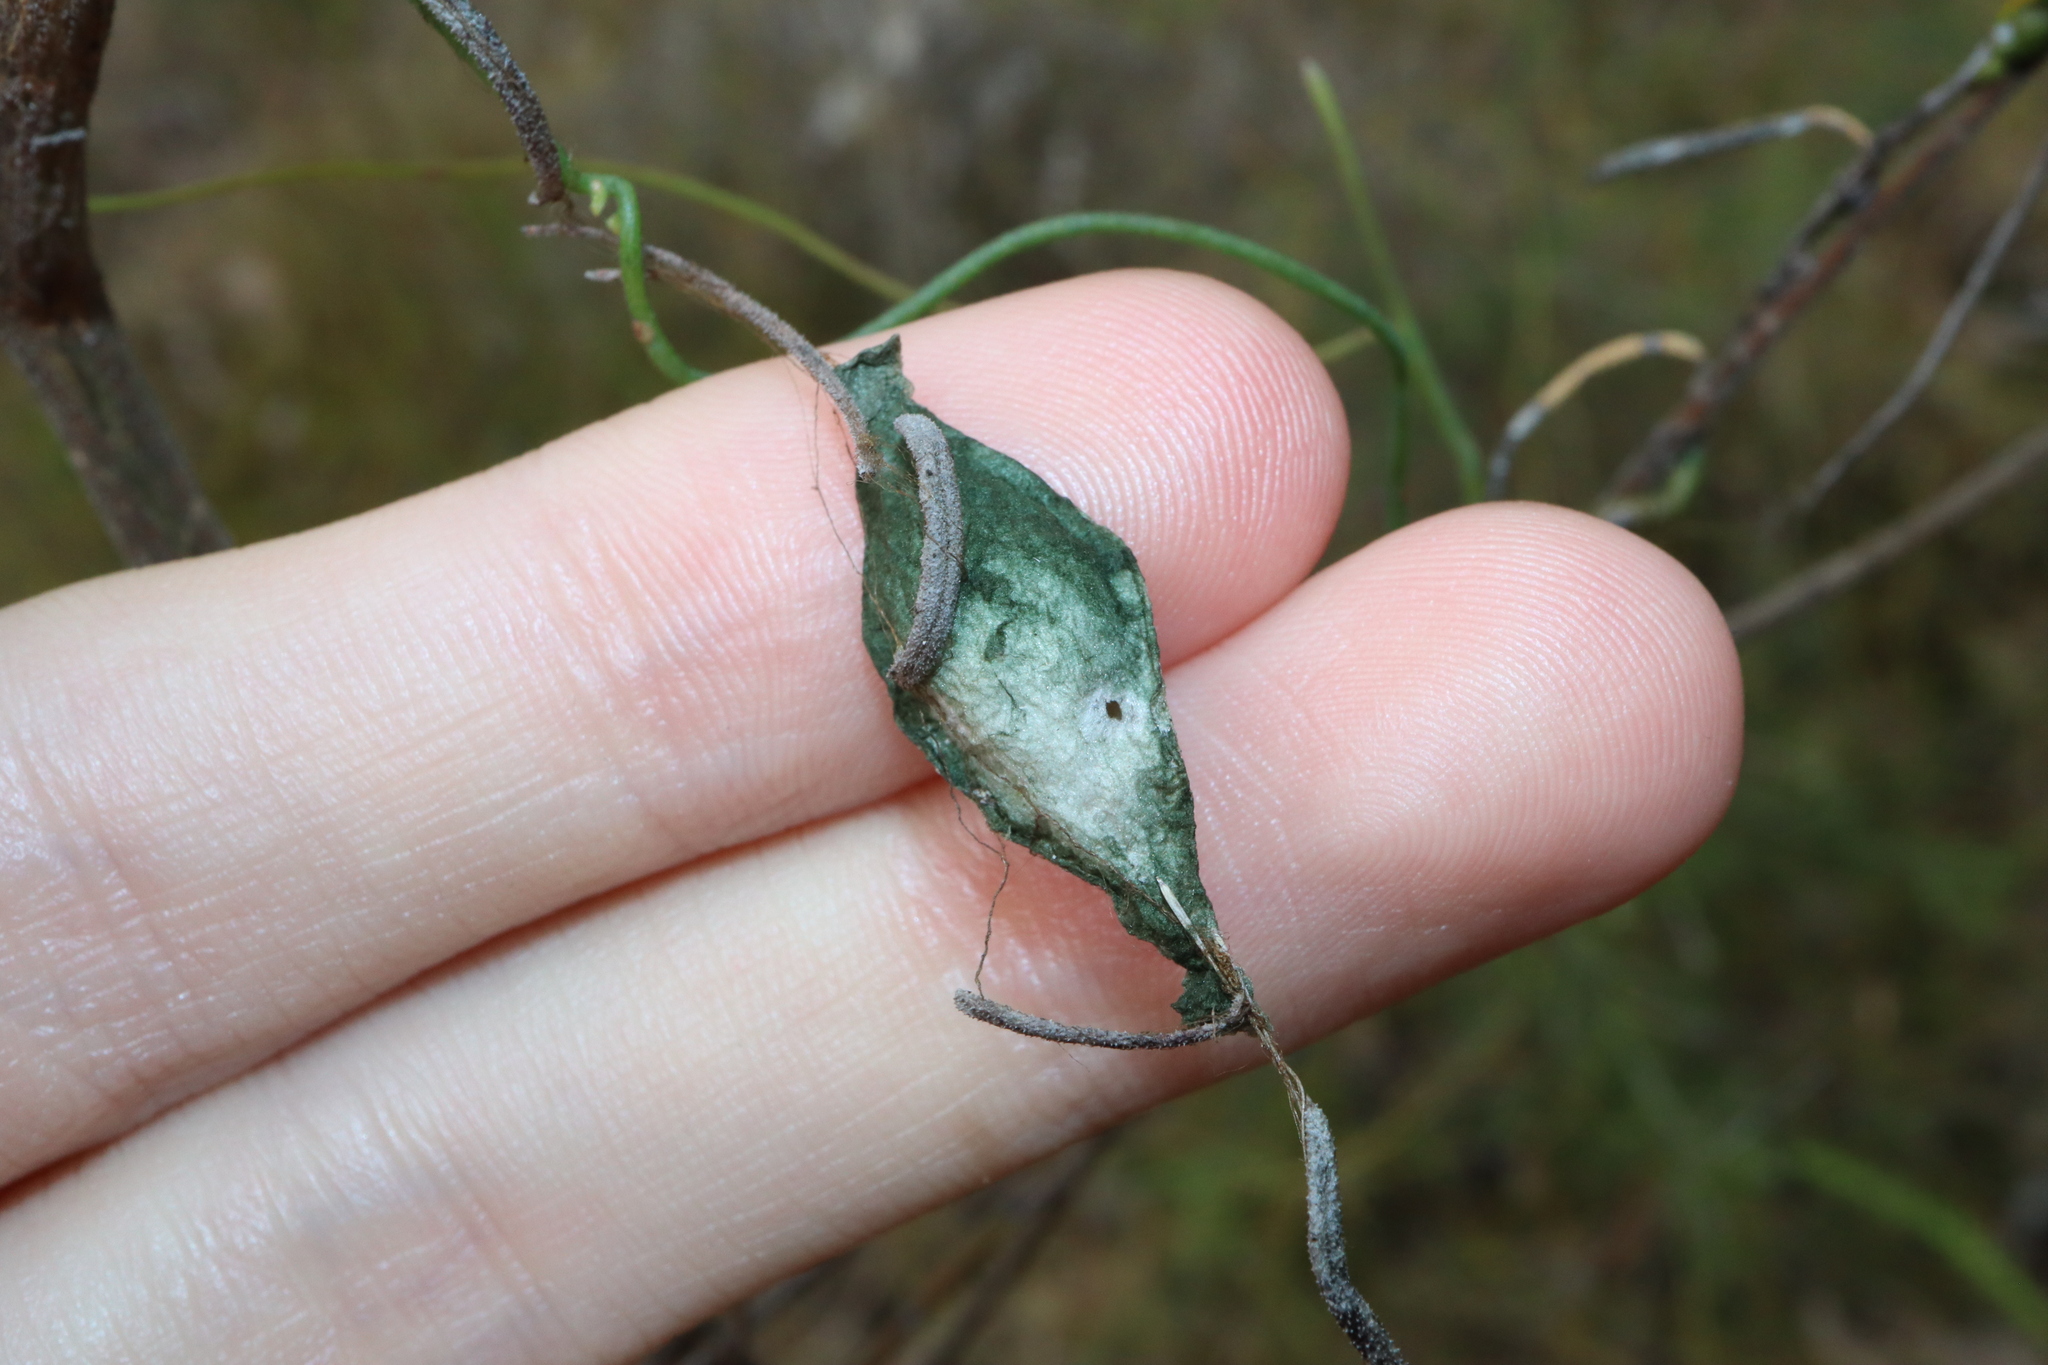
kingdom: Animalia
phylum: Arthropoda
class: Arachnida
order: Araneae
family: Araneidae
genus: Argiope
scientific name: Argiope keyserlingi
